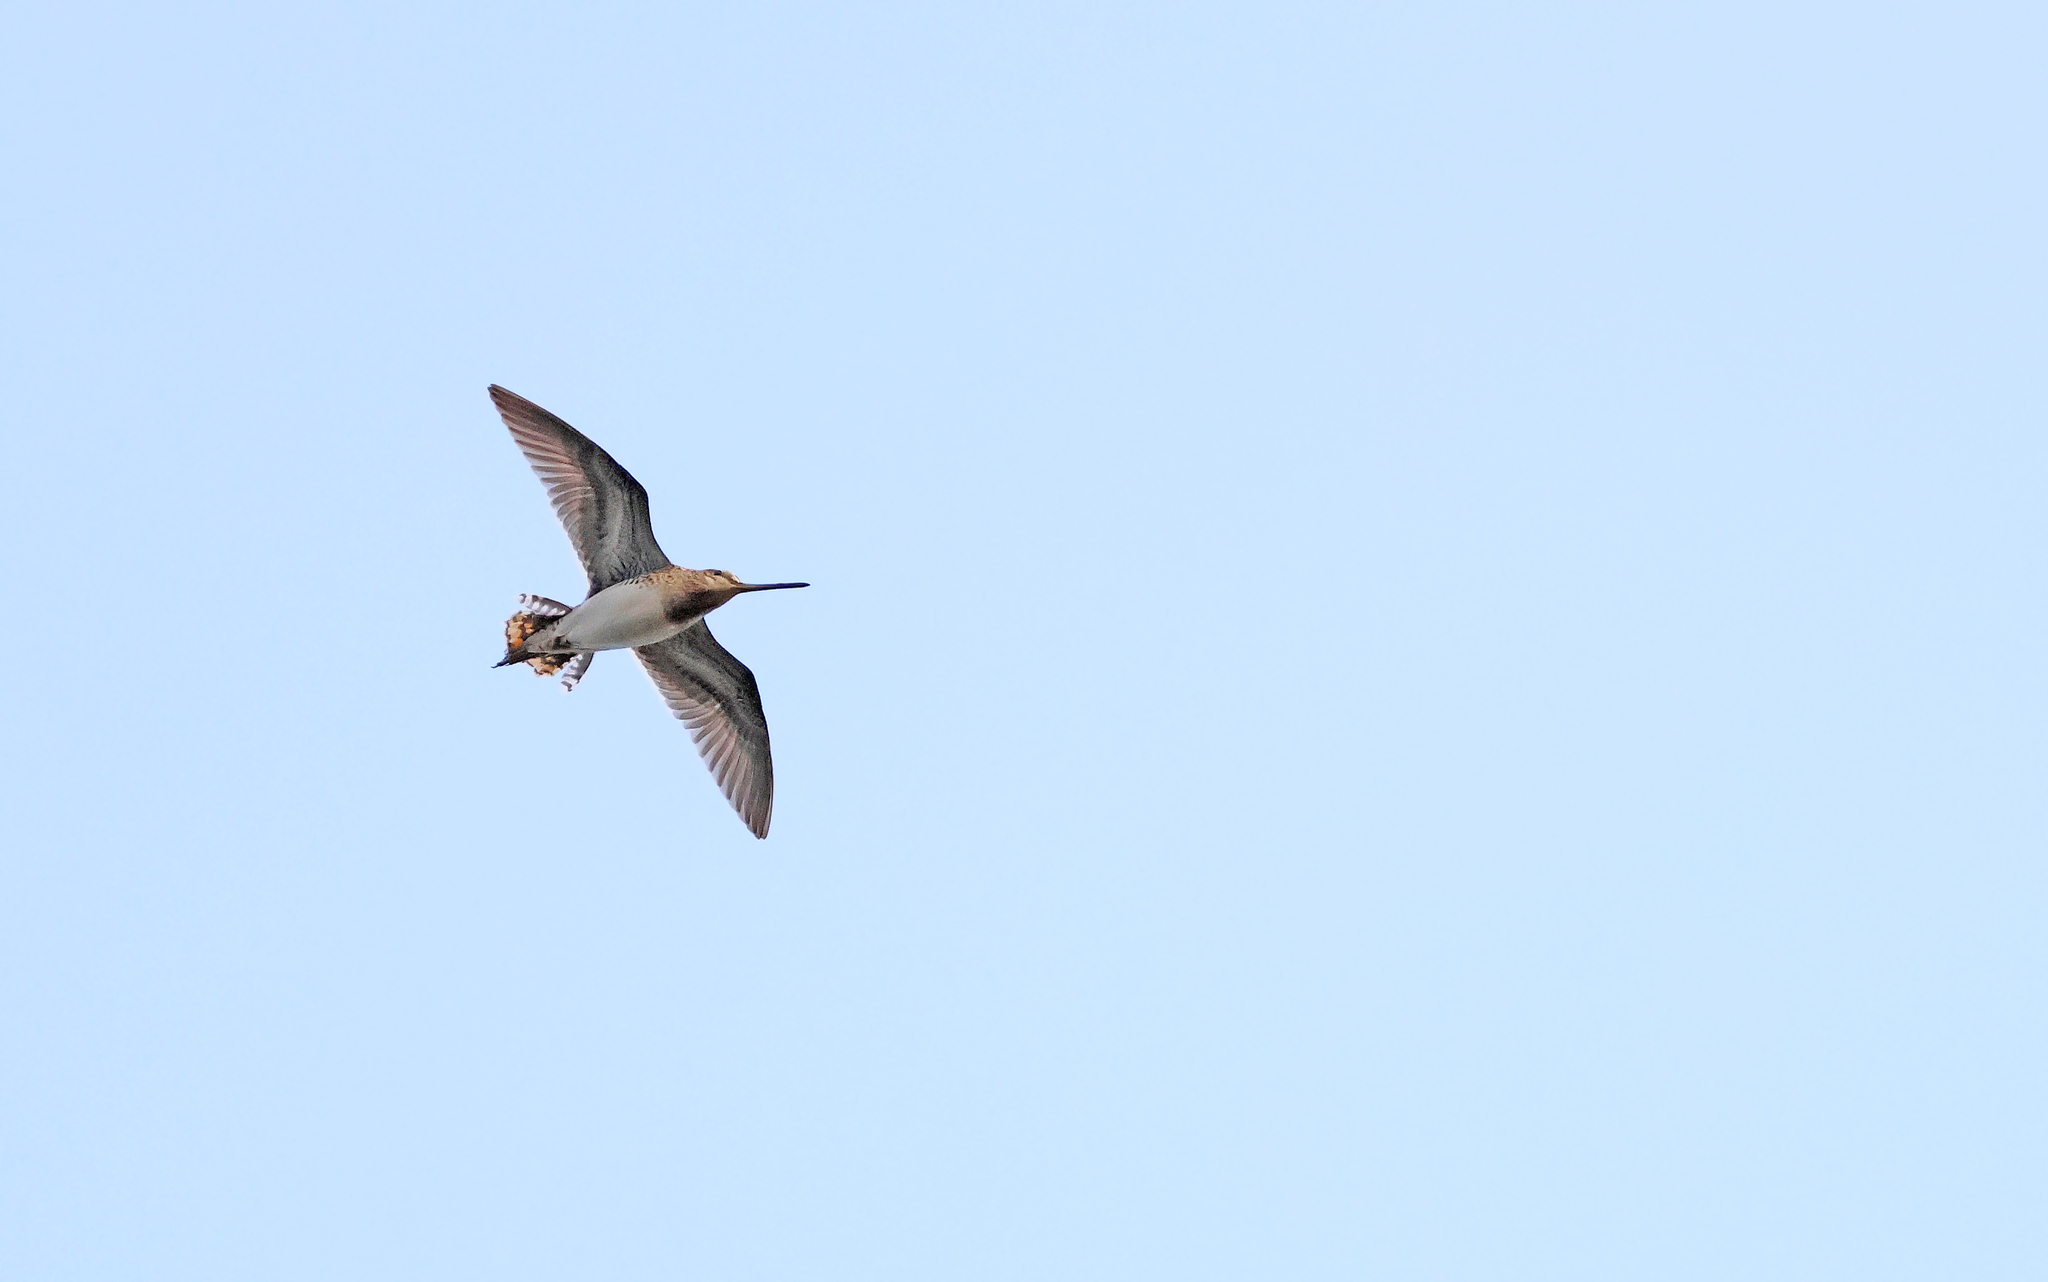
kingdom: Animalia
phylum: Chordata
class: Aves
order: Charadriiformes
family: Scolopacidae
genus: Gallinago
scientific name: Gallinago gallinago
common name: Common snipe
